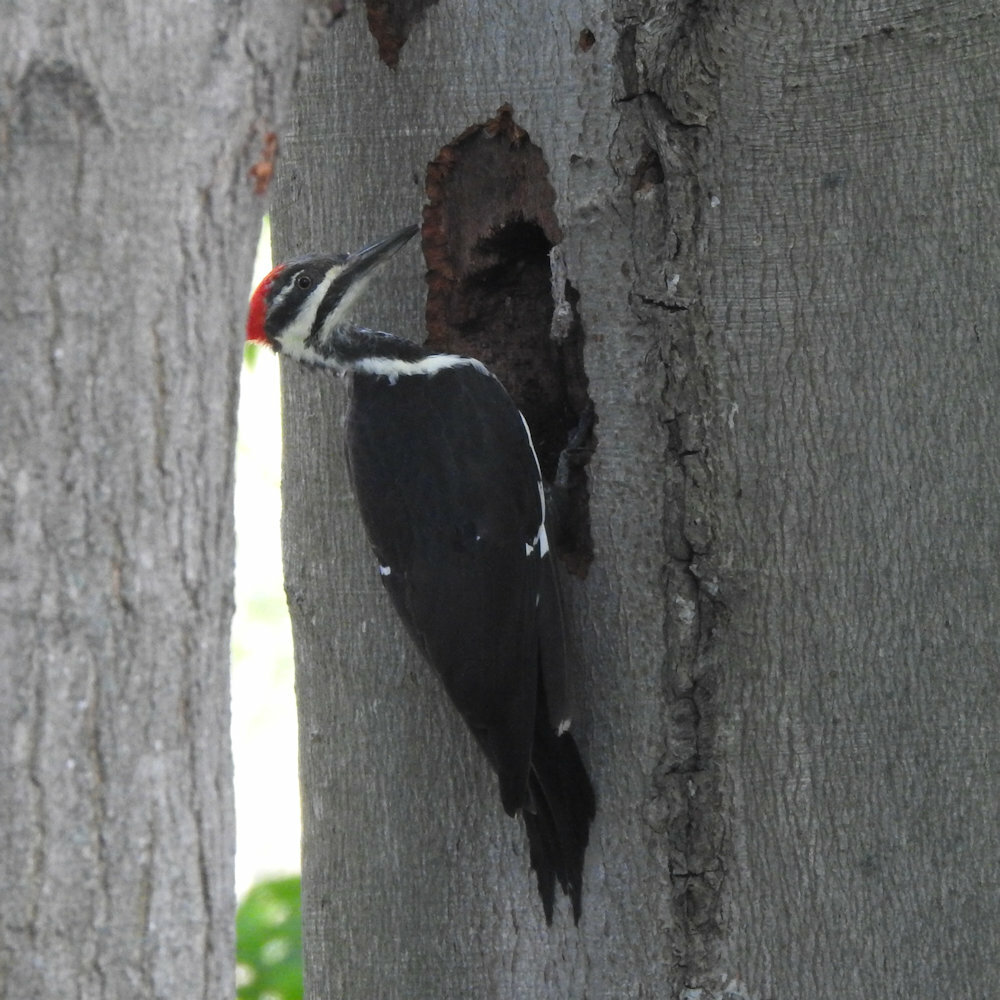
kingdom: Animalia
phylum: Chordata
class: Aves
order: Piciformes
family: Picidae
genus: Dryocopus
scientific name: Dryocopus pileatus
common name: Pileated woodpecker
